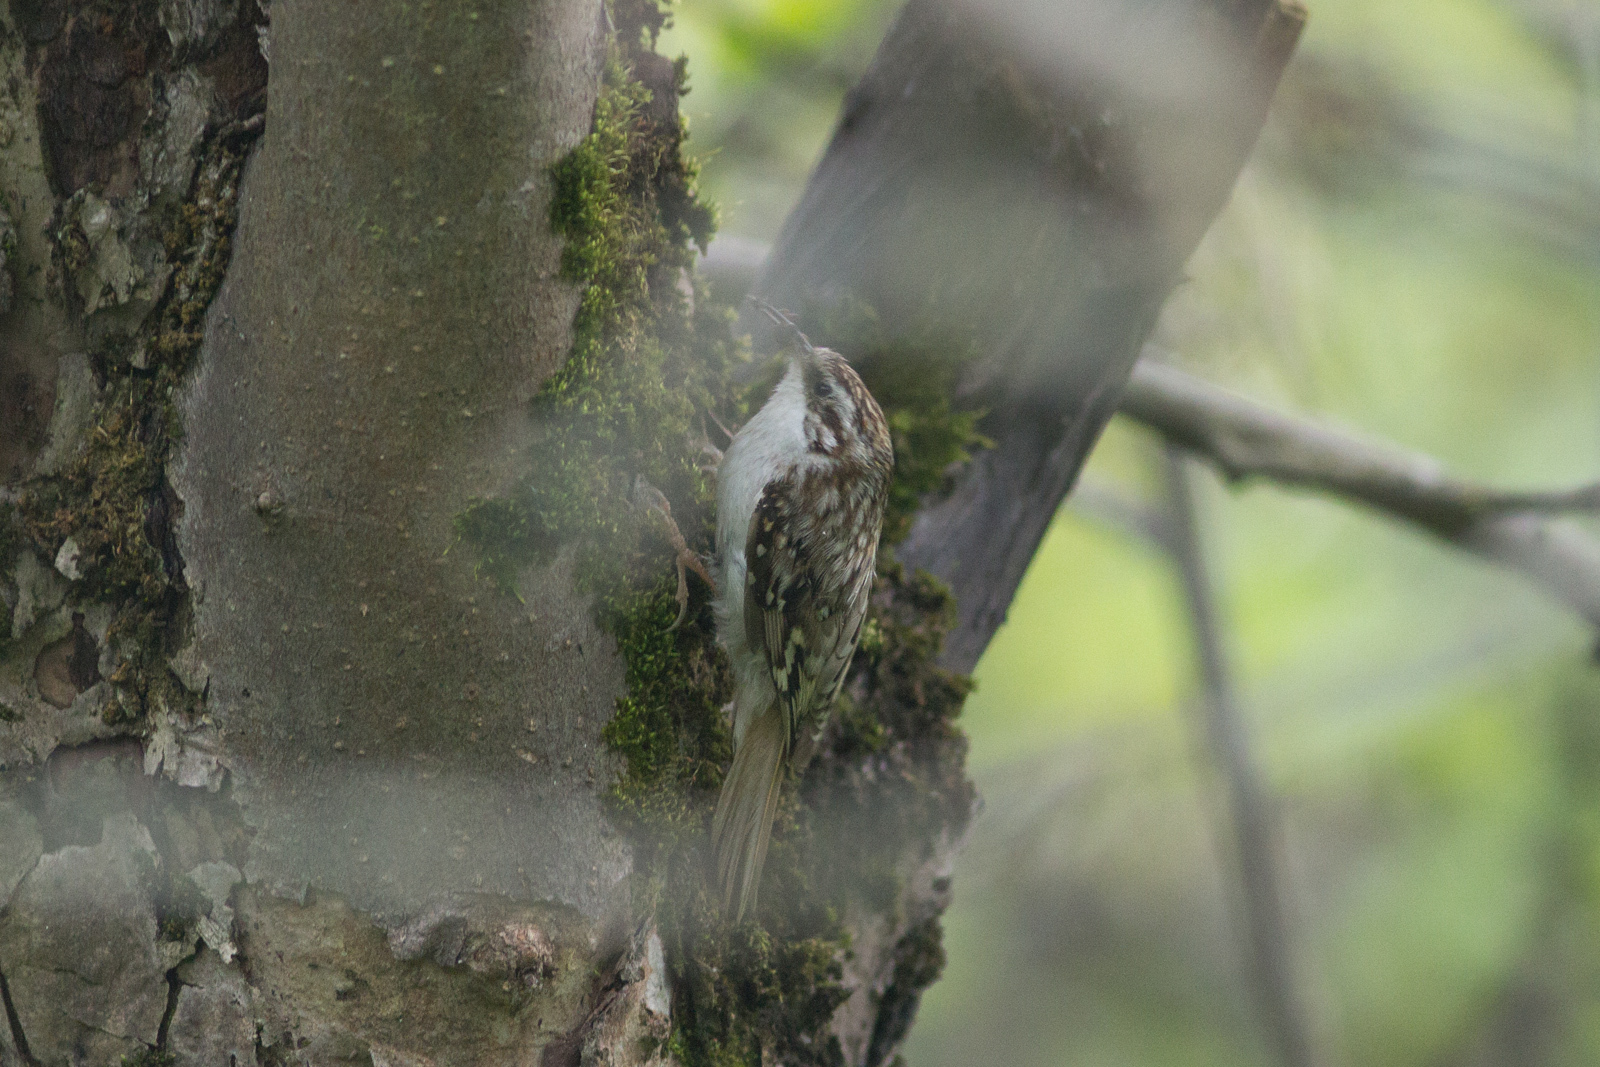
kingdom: Animalia
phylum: Chordata
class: Aves
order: Passeriformes
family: Certhiidae
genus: Certhia
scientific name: Certhia familiaris
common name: Eurasian treecreeper
